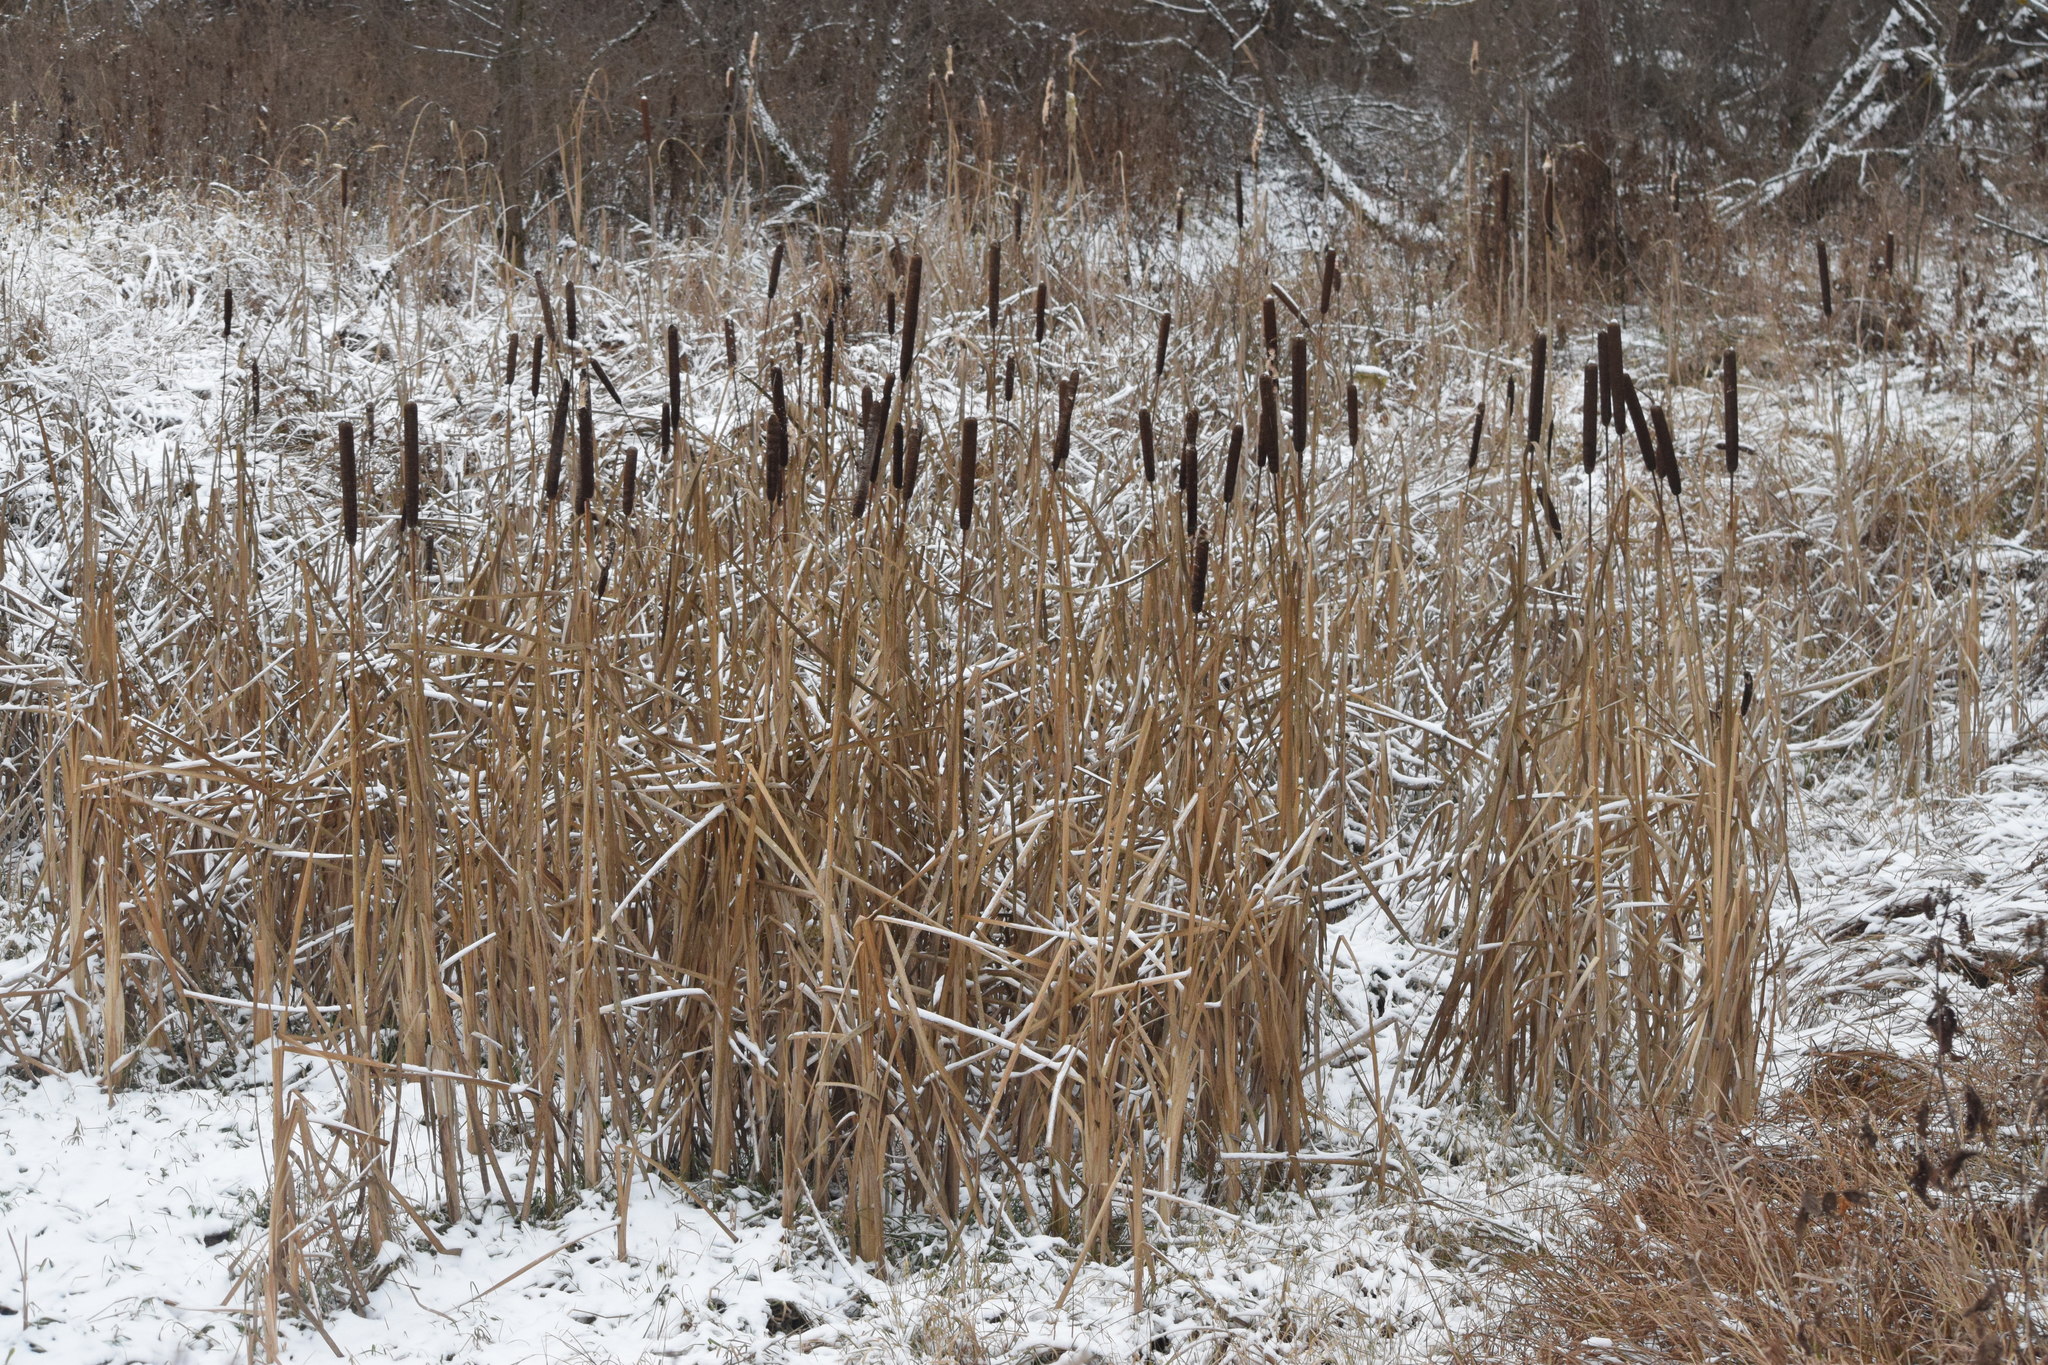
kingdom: Plantae
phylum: Tracheophyta
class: Liliopsida
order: Poales
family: Typhaceae
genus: Typha
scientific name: Typha latifolia
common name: Broadleaf cattail
